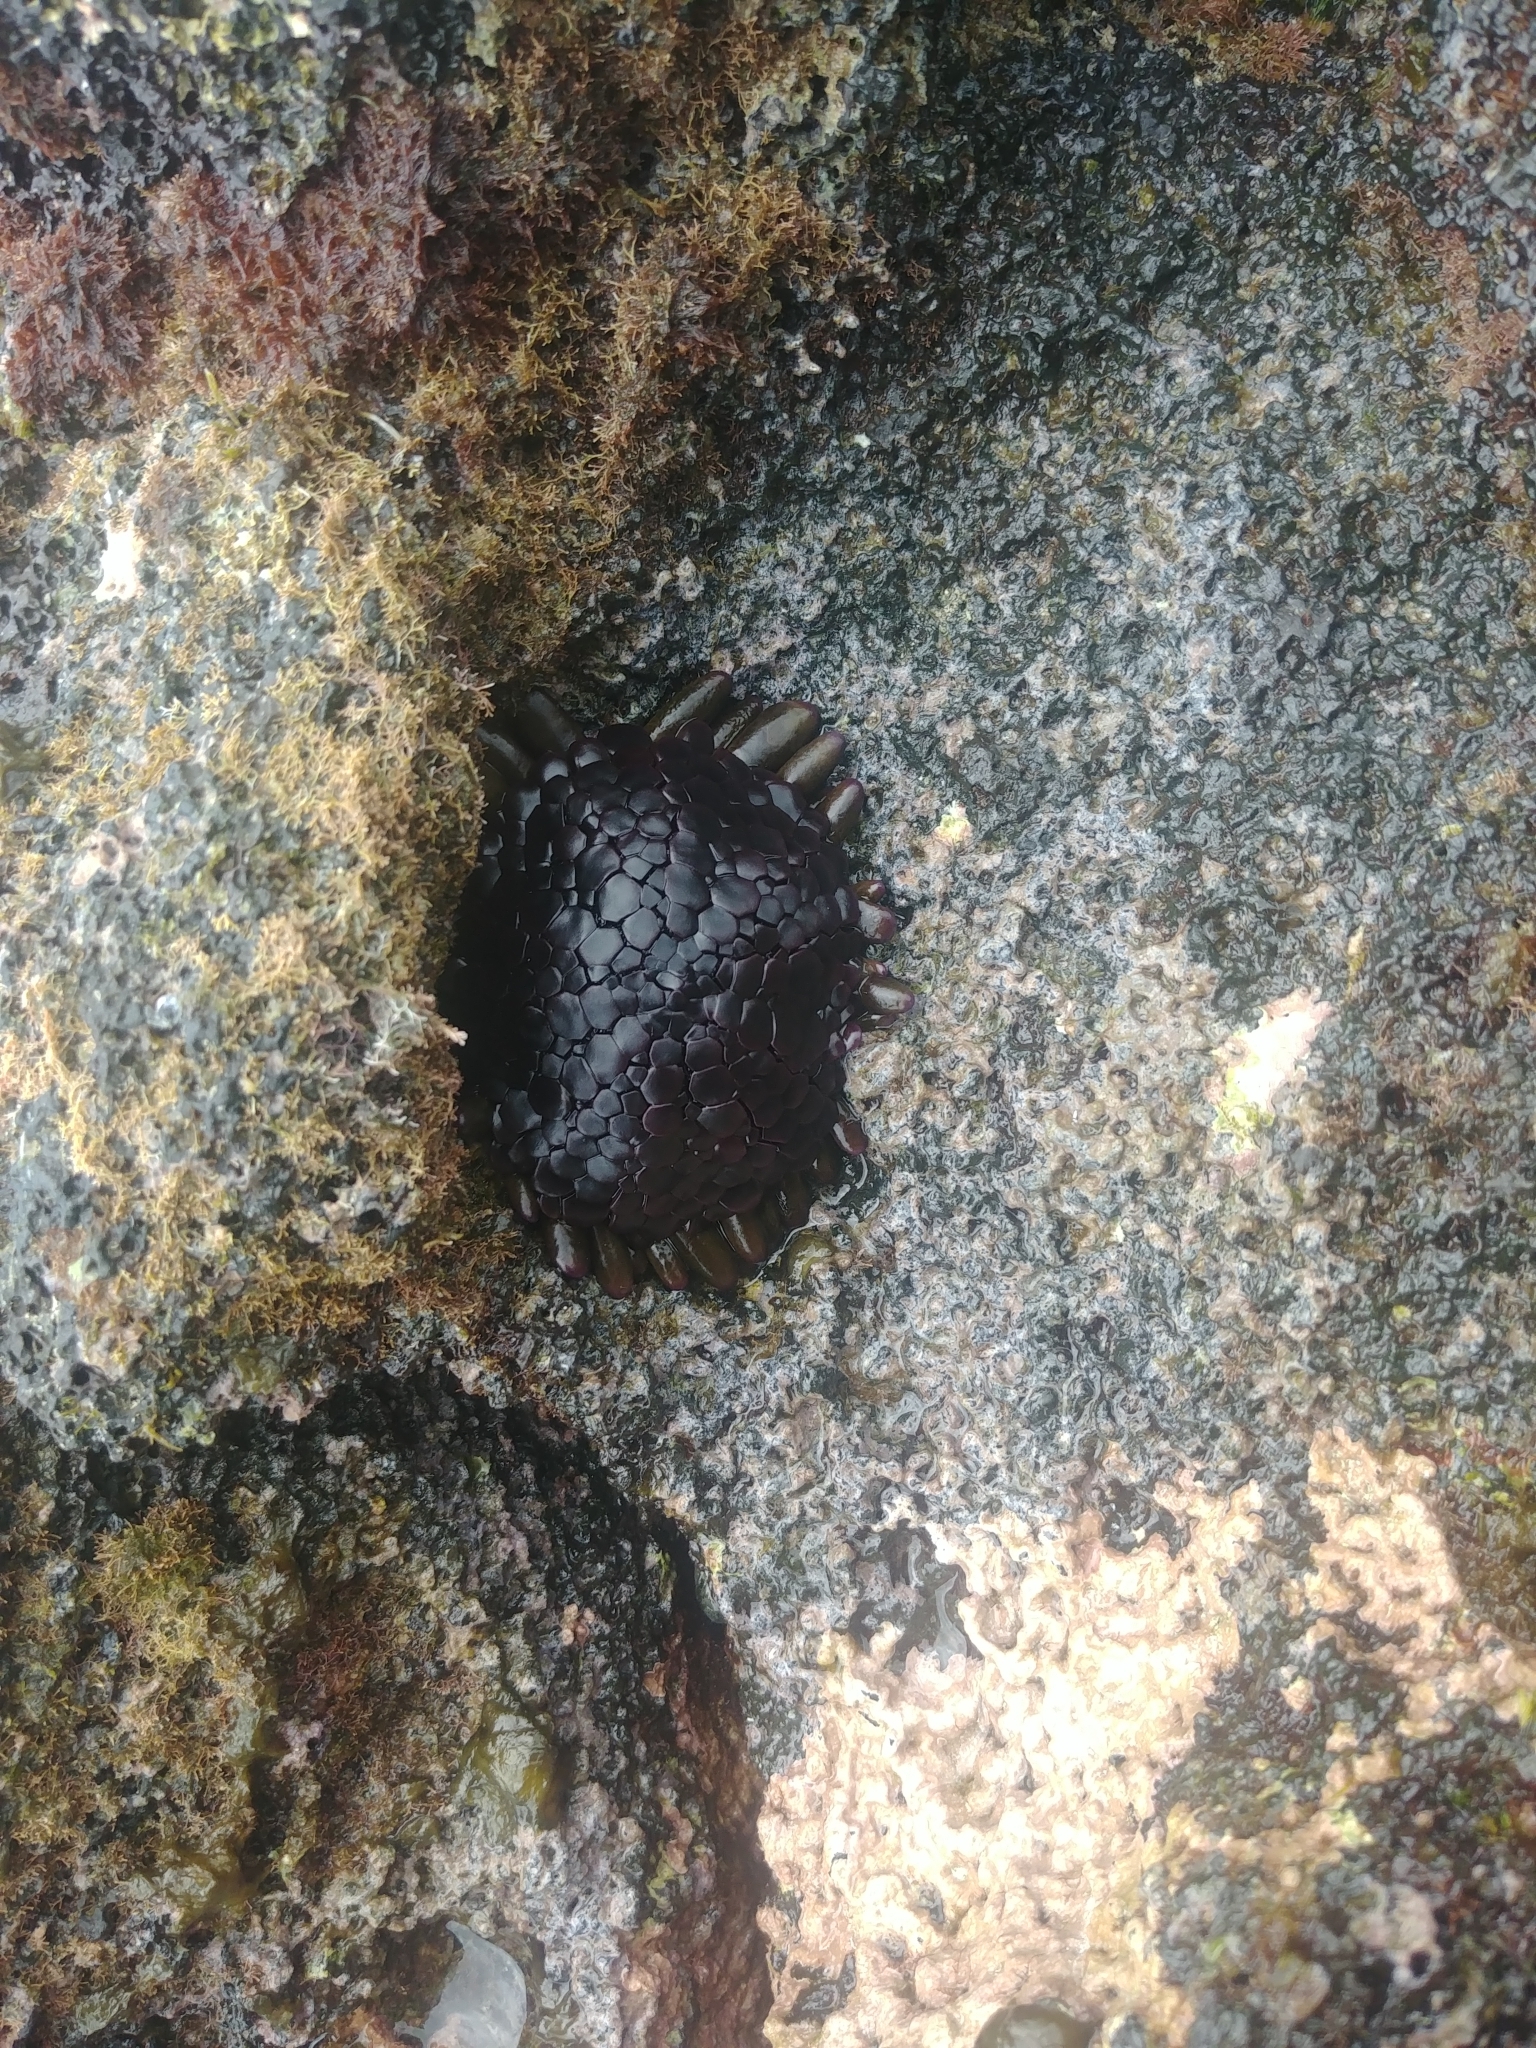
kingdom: Animalia
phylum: Echinodermata
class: Echinoidea
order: Camarodonta
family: Echinometridae
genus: Colobocentrotus
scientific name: Colobocentrotus atratus
